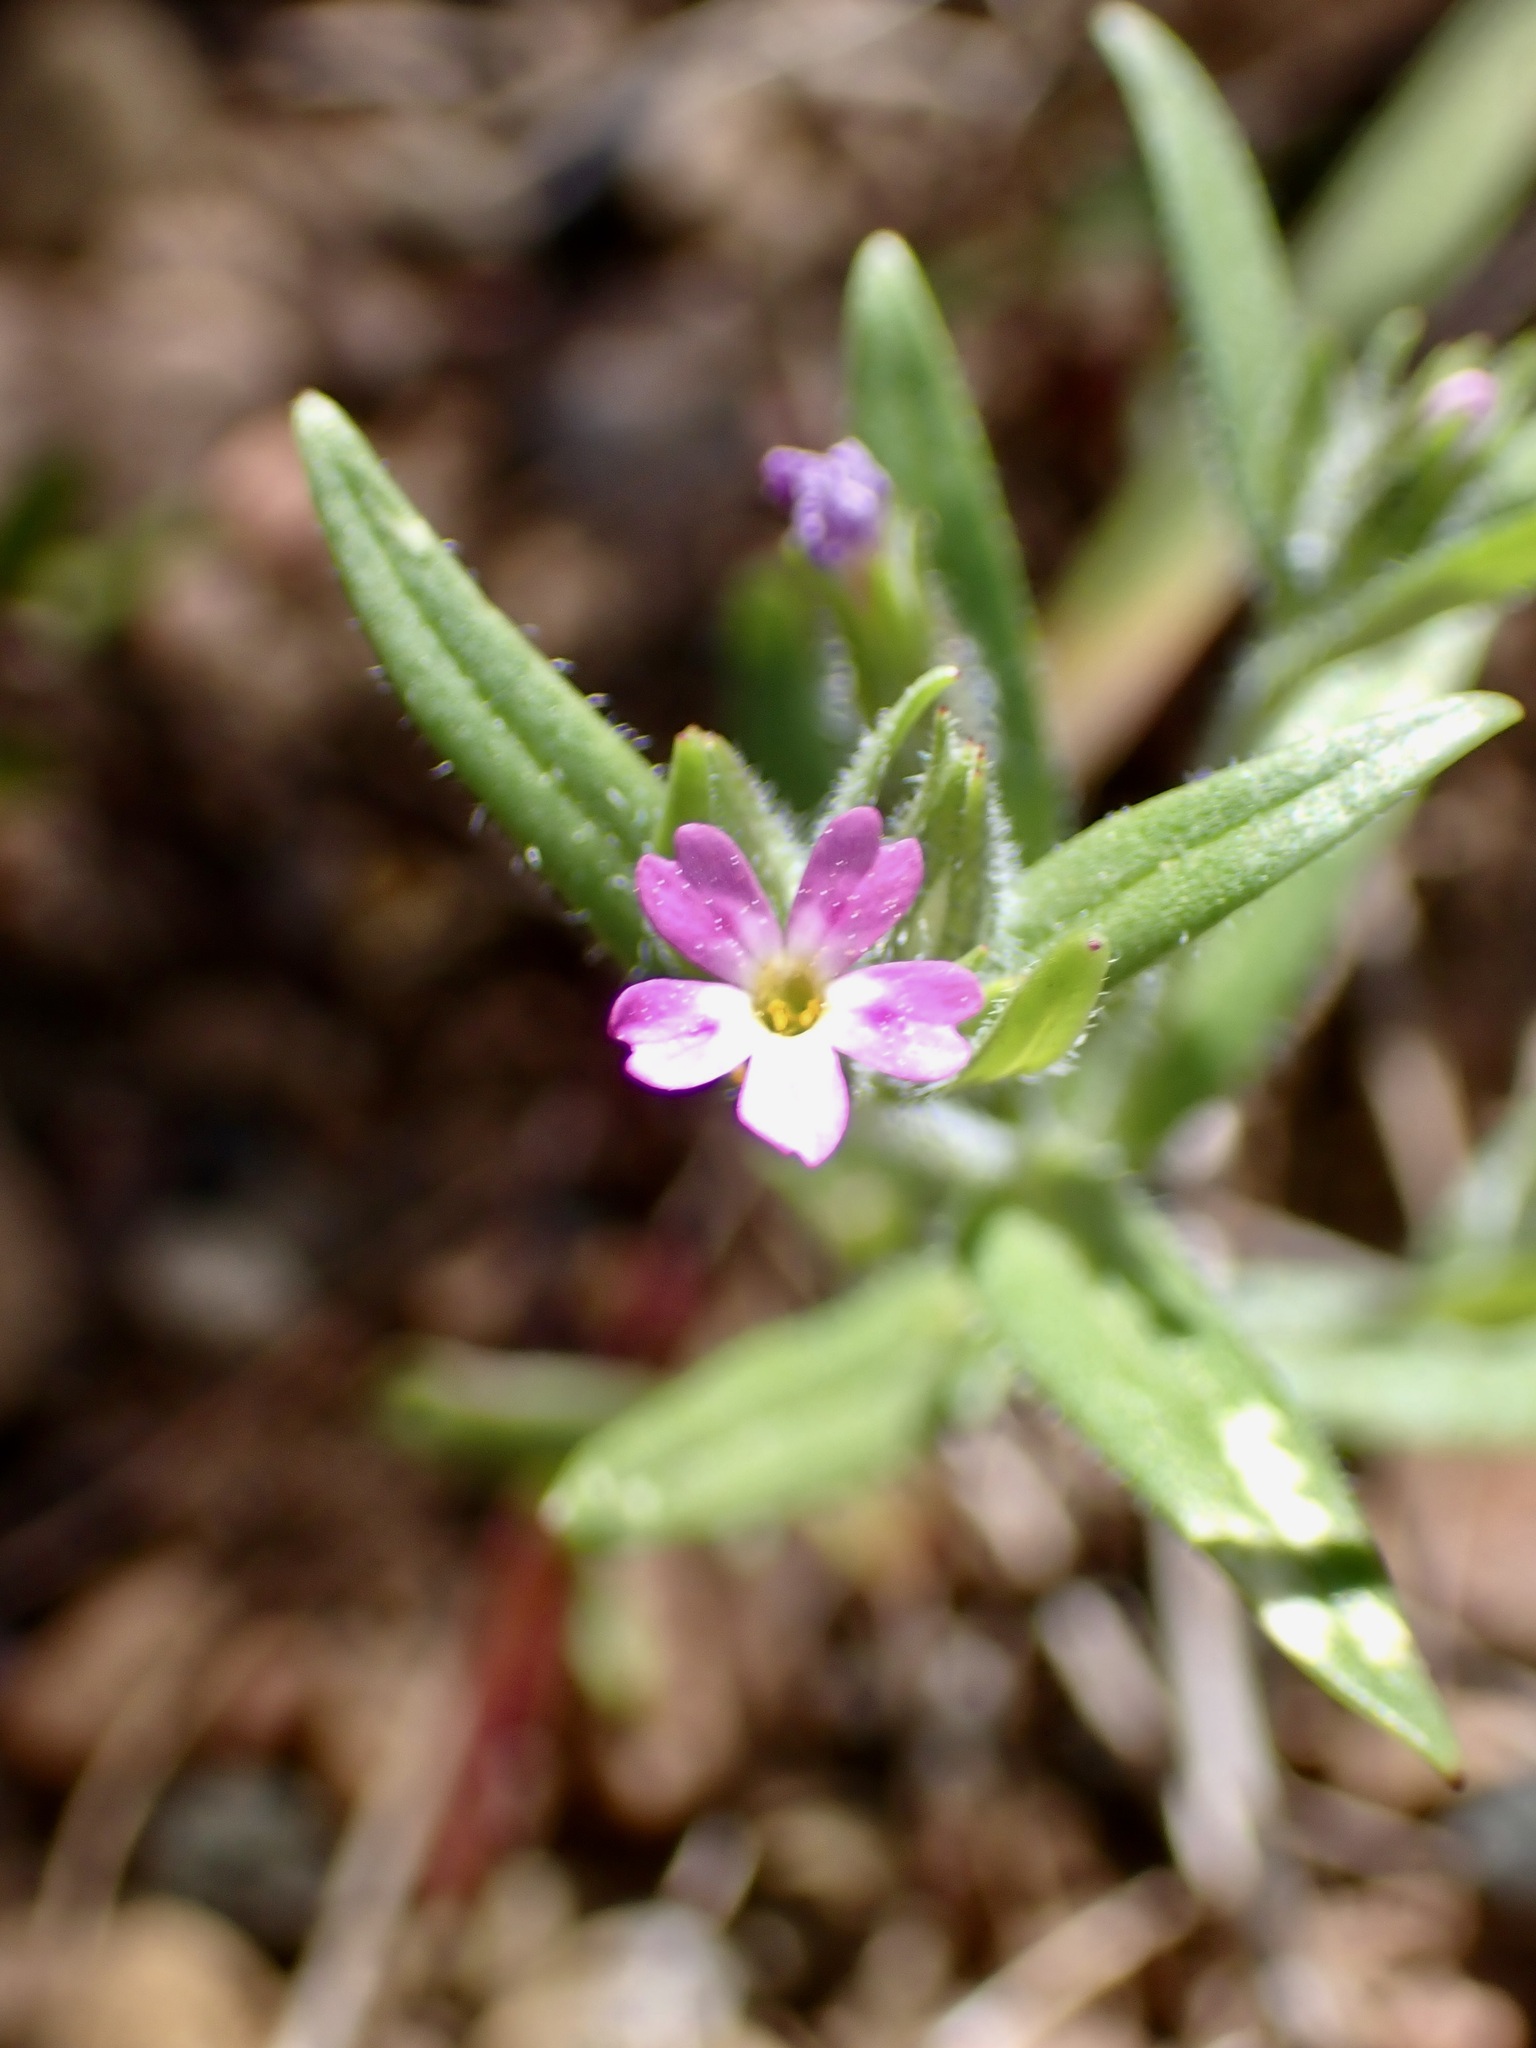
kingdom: Plantae
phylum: Tracheophyta
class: Magnoliopsida
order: Ericales
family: Polemoniaceae
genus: Phlox
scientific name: Phlox gracilis
